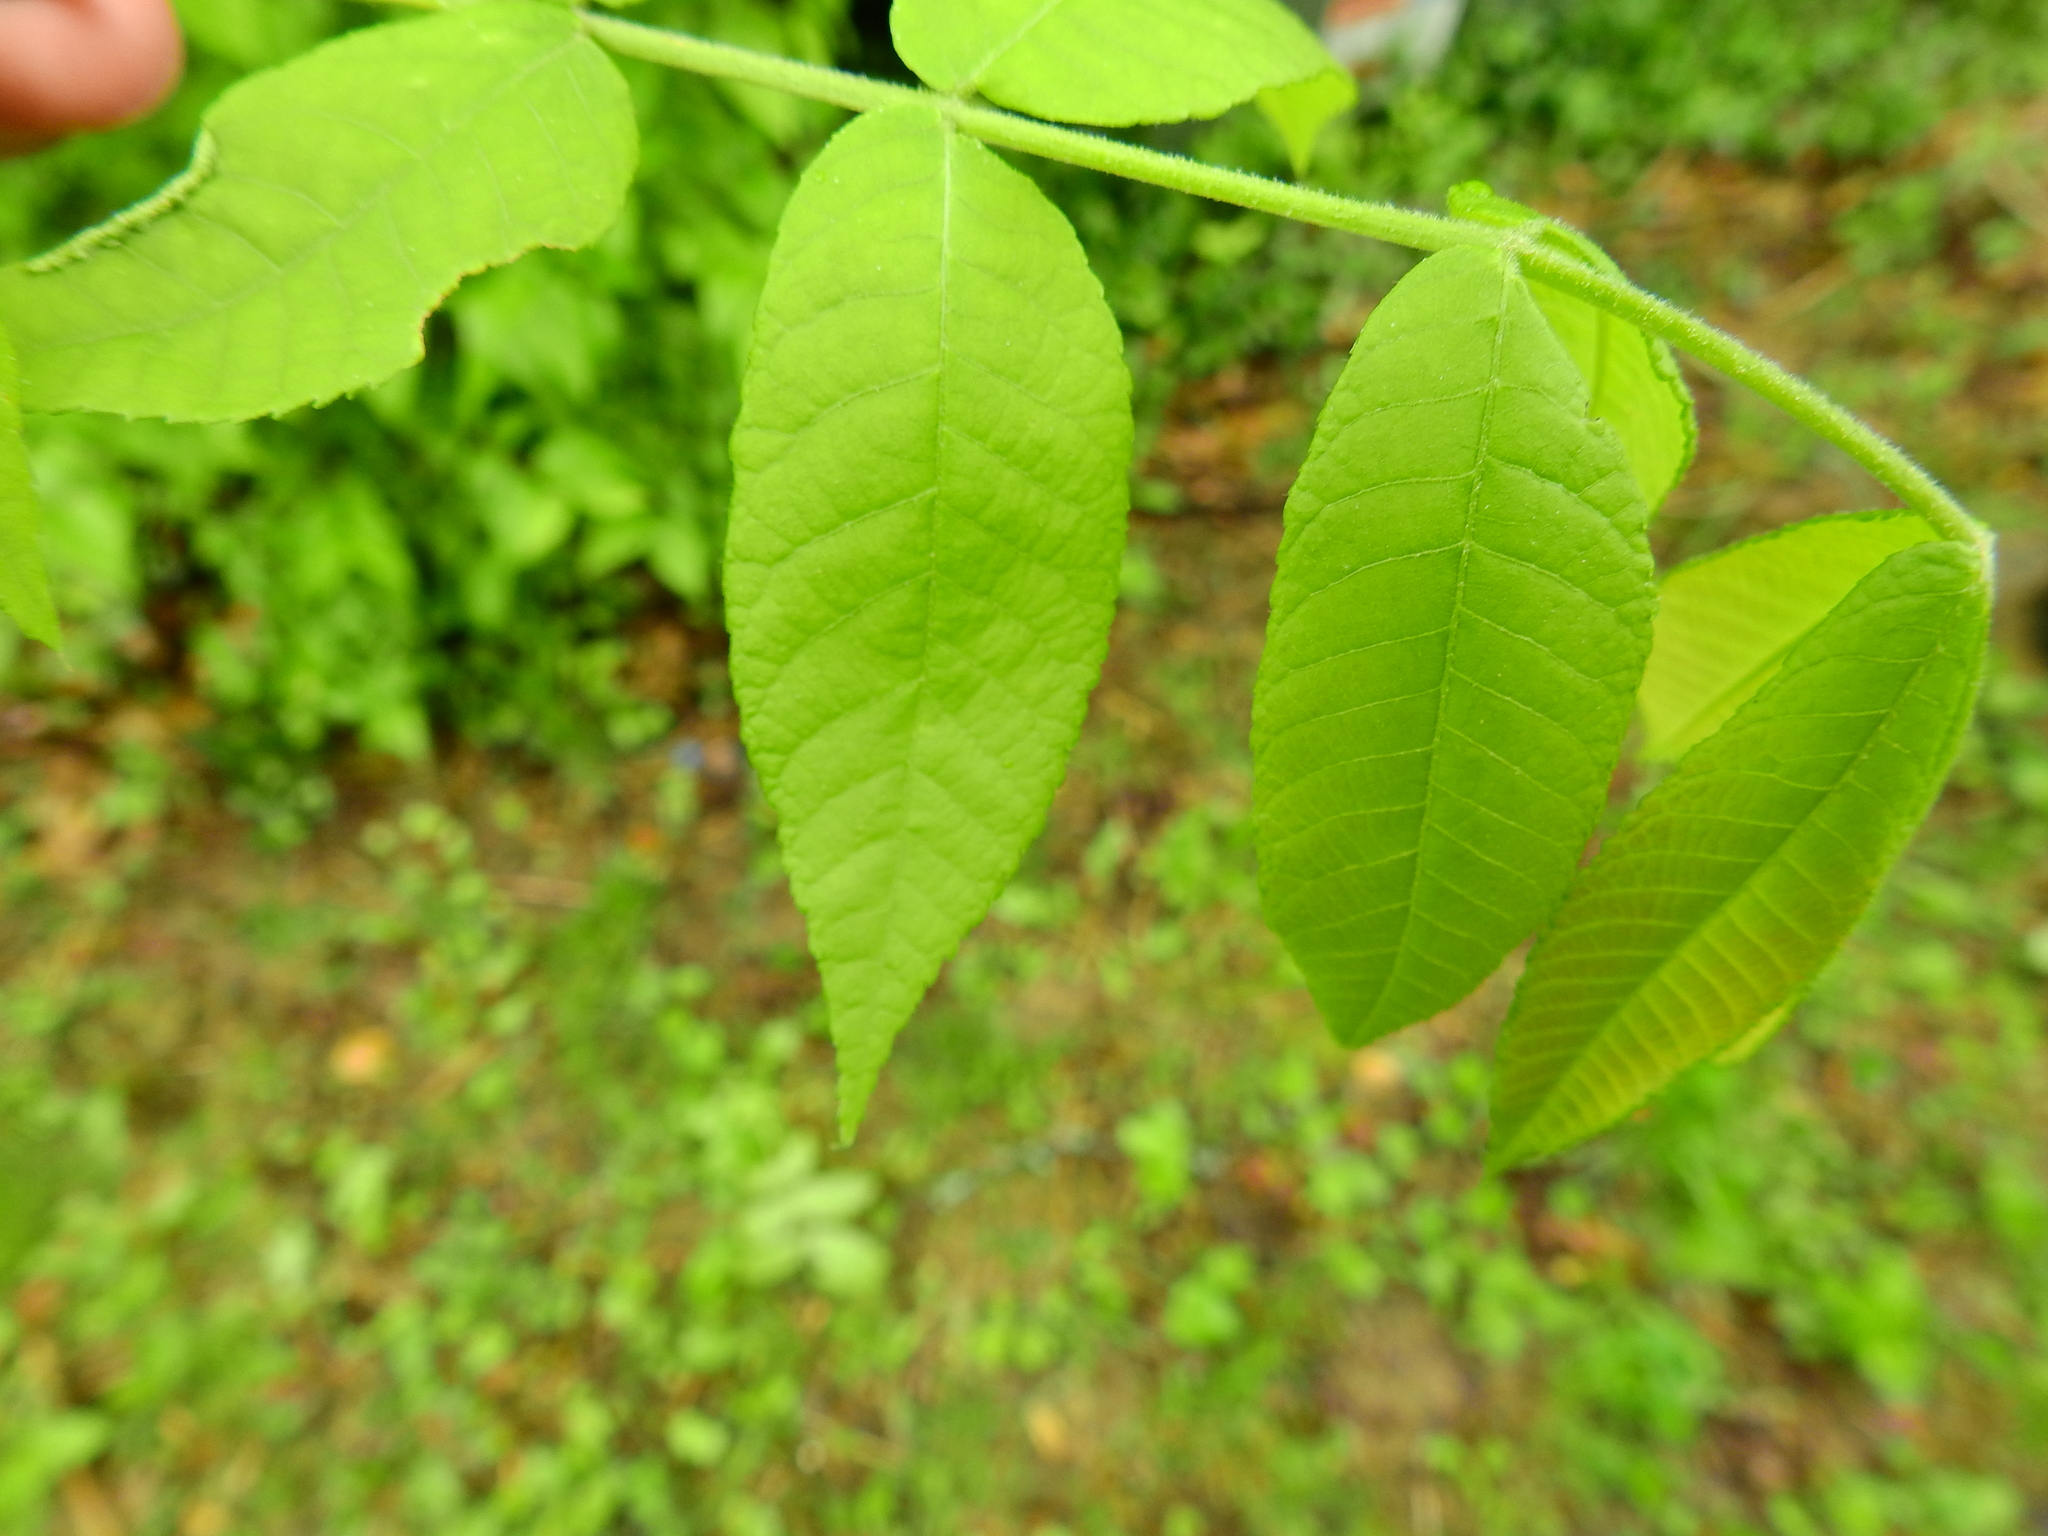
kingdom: Plantae
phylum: Tracheophyta
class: Magnoliopsida
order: Fagales
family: Juglandaceae
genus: Juglans
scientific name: Juglans nigra
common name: Black walnut
